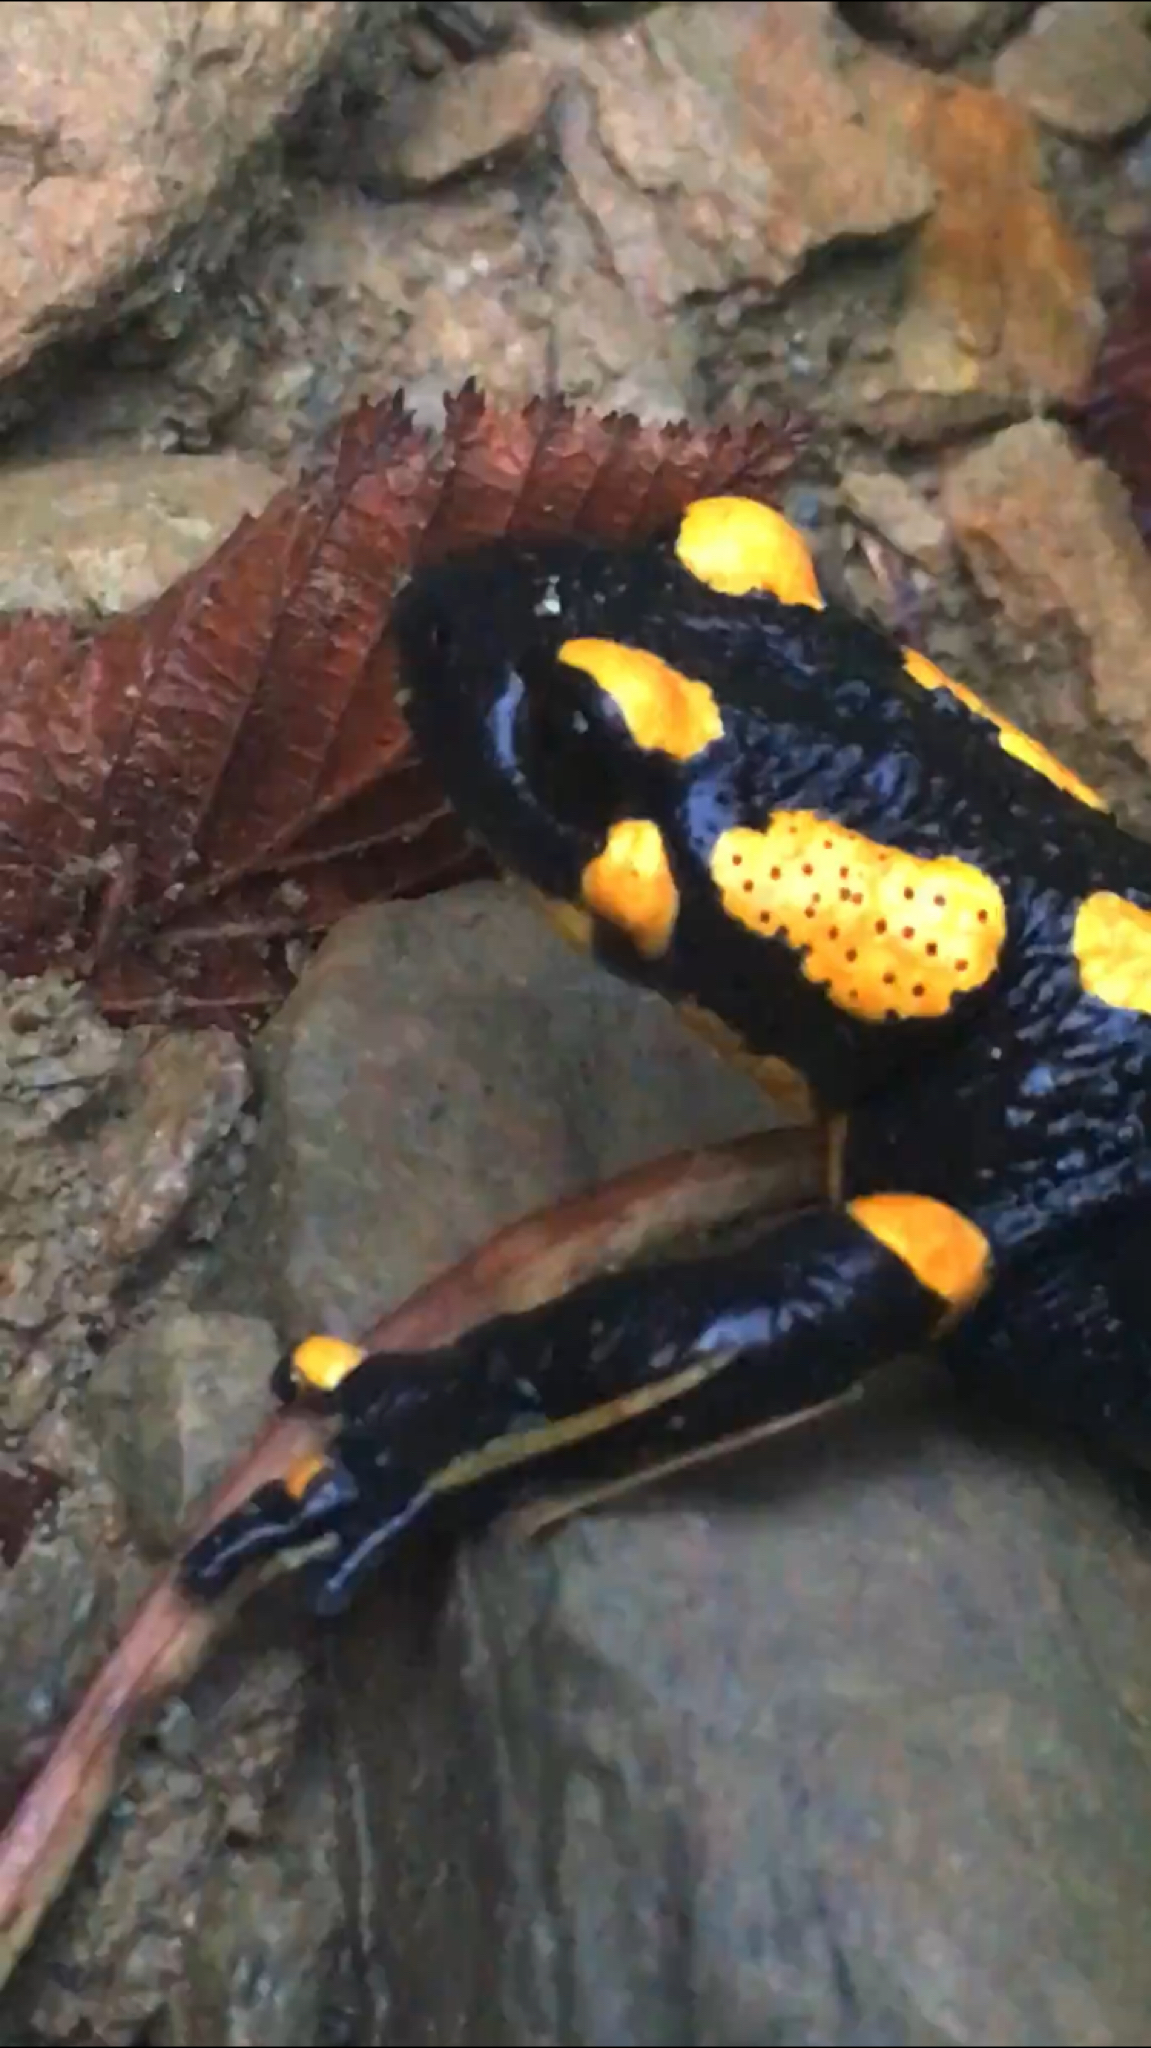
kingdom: Animalia
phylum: Chordata
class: Amphibia
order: Caudata
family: Salamandridae
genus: Salamandra
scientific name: Salamandra salamandra
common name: Fire salamander
